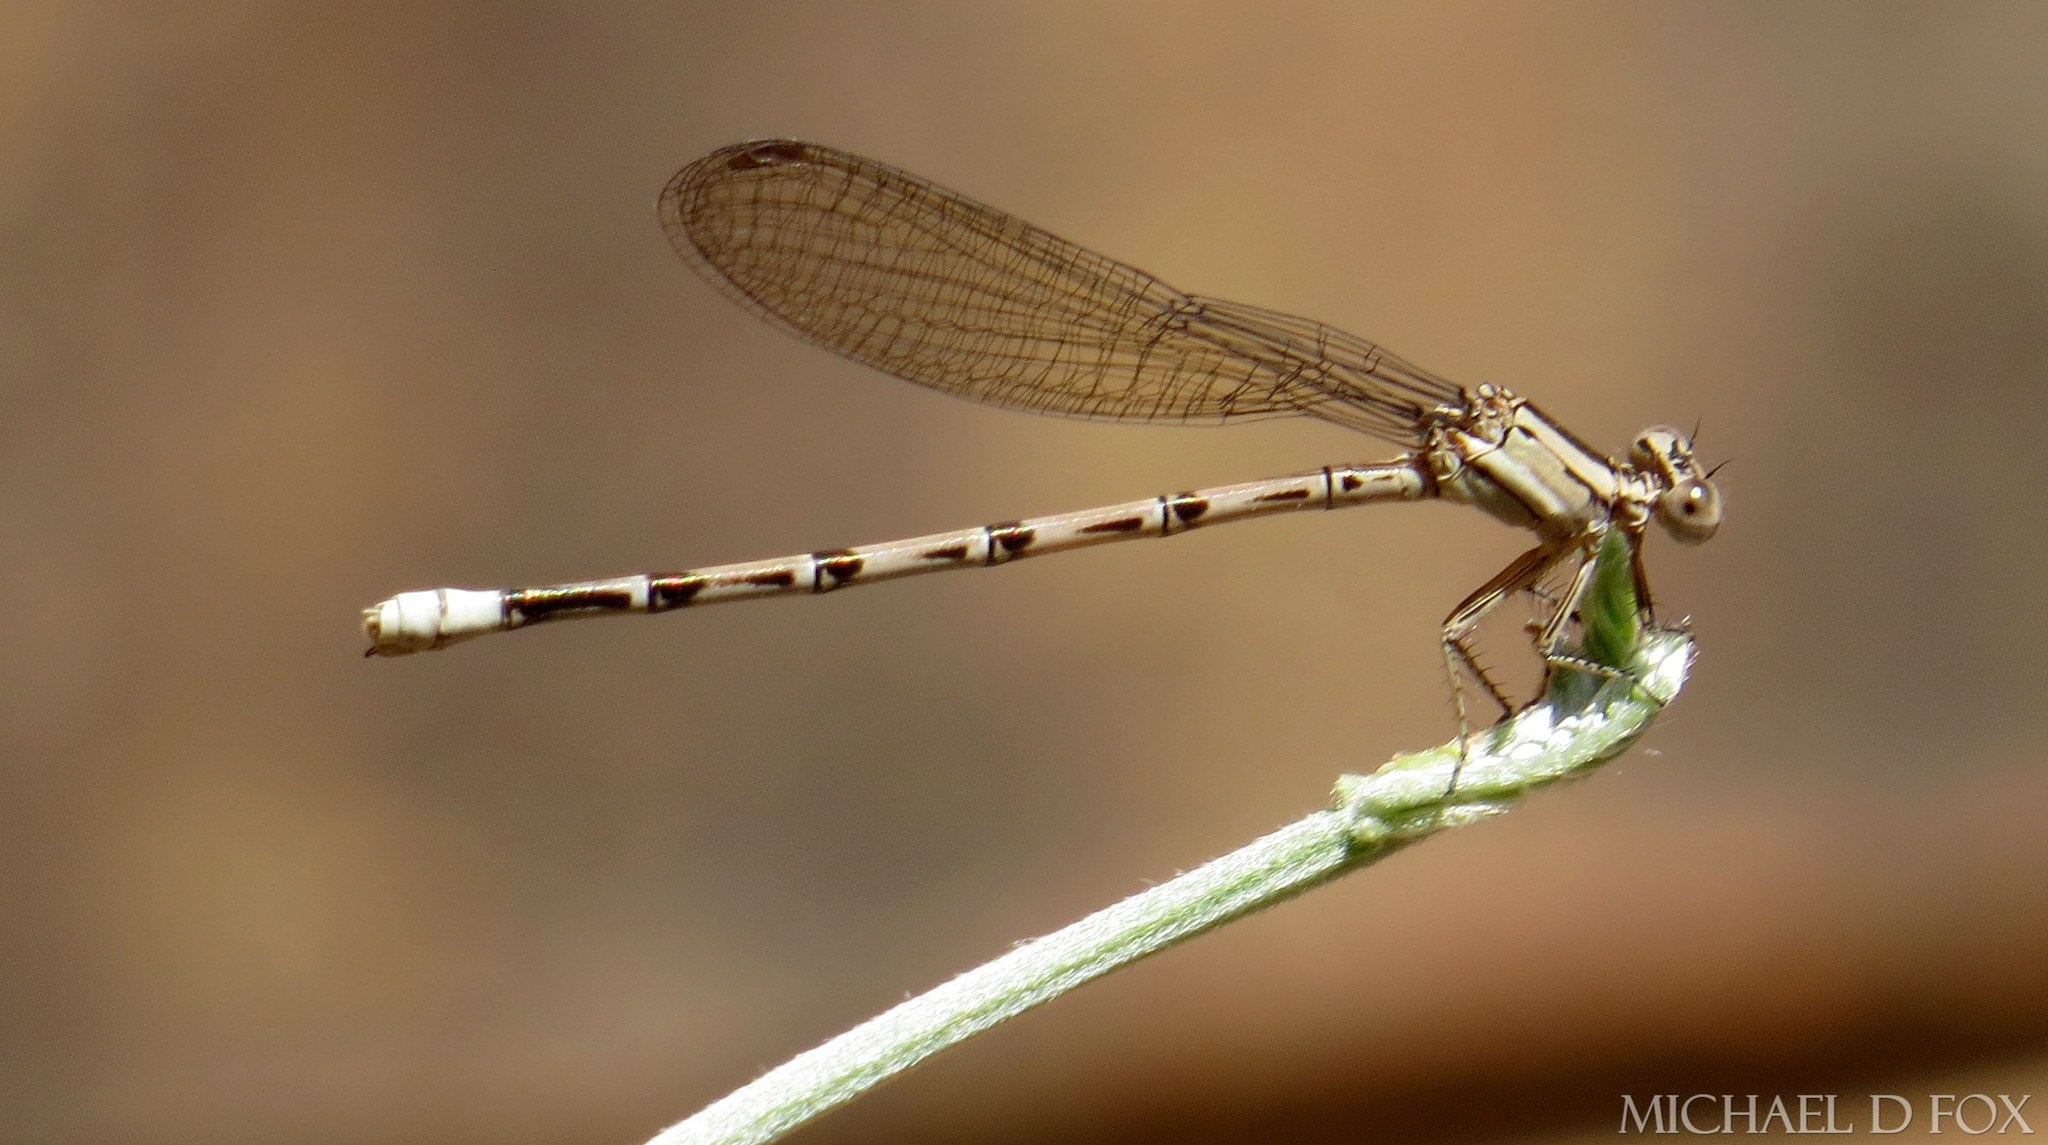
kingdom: Animalia
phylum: Arthropoda
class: Insecta
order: Odonata
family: Coenagrionidae
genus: Argia
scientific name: Argia funebris
